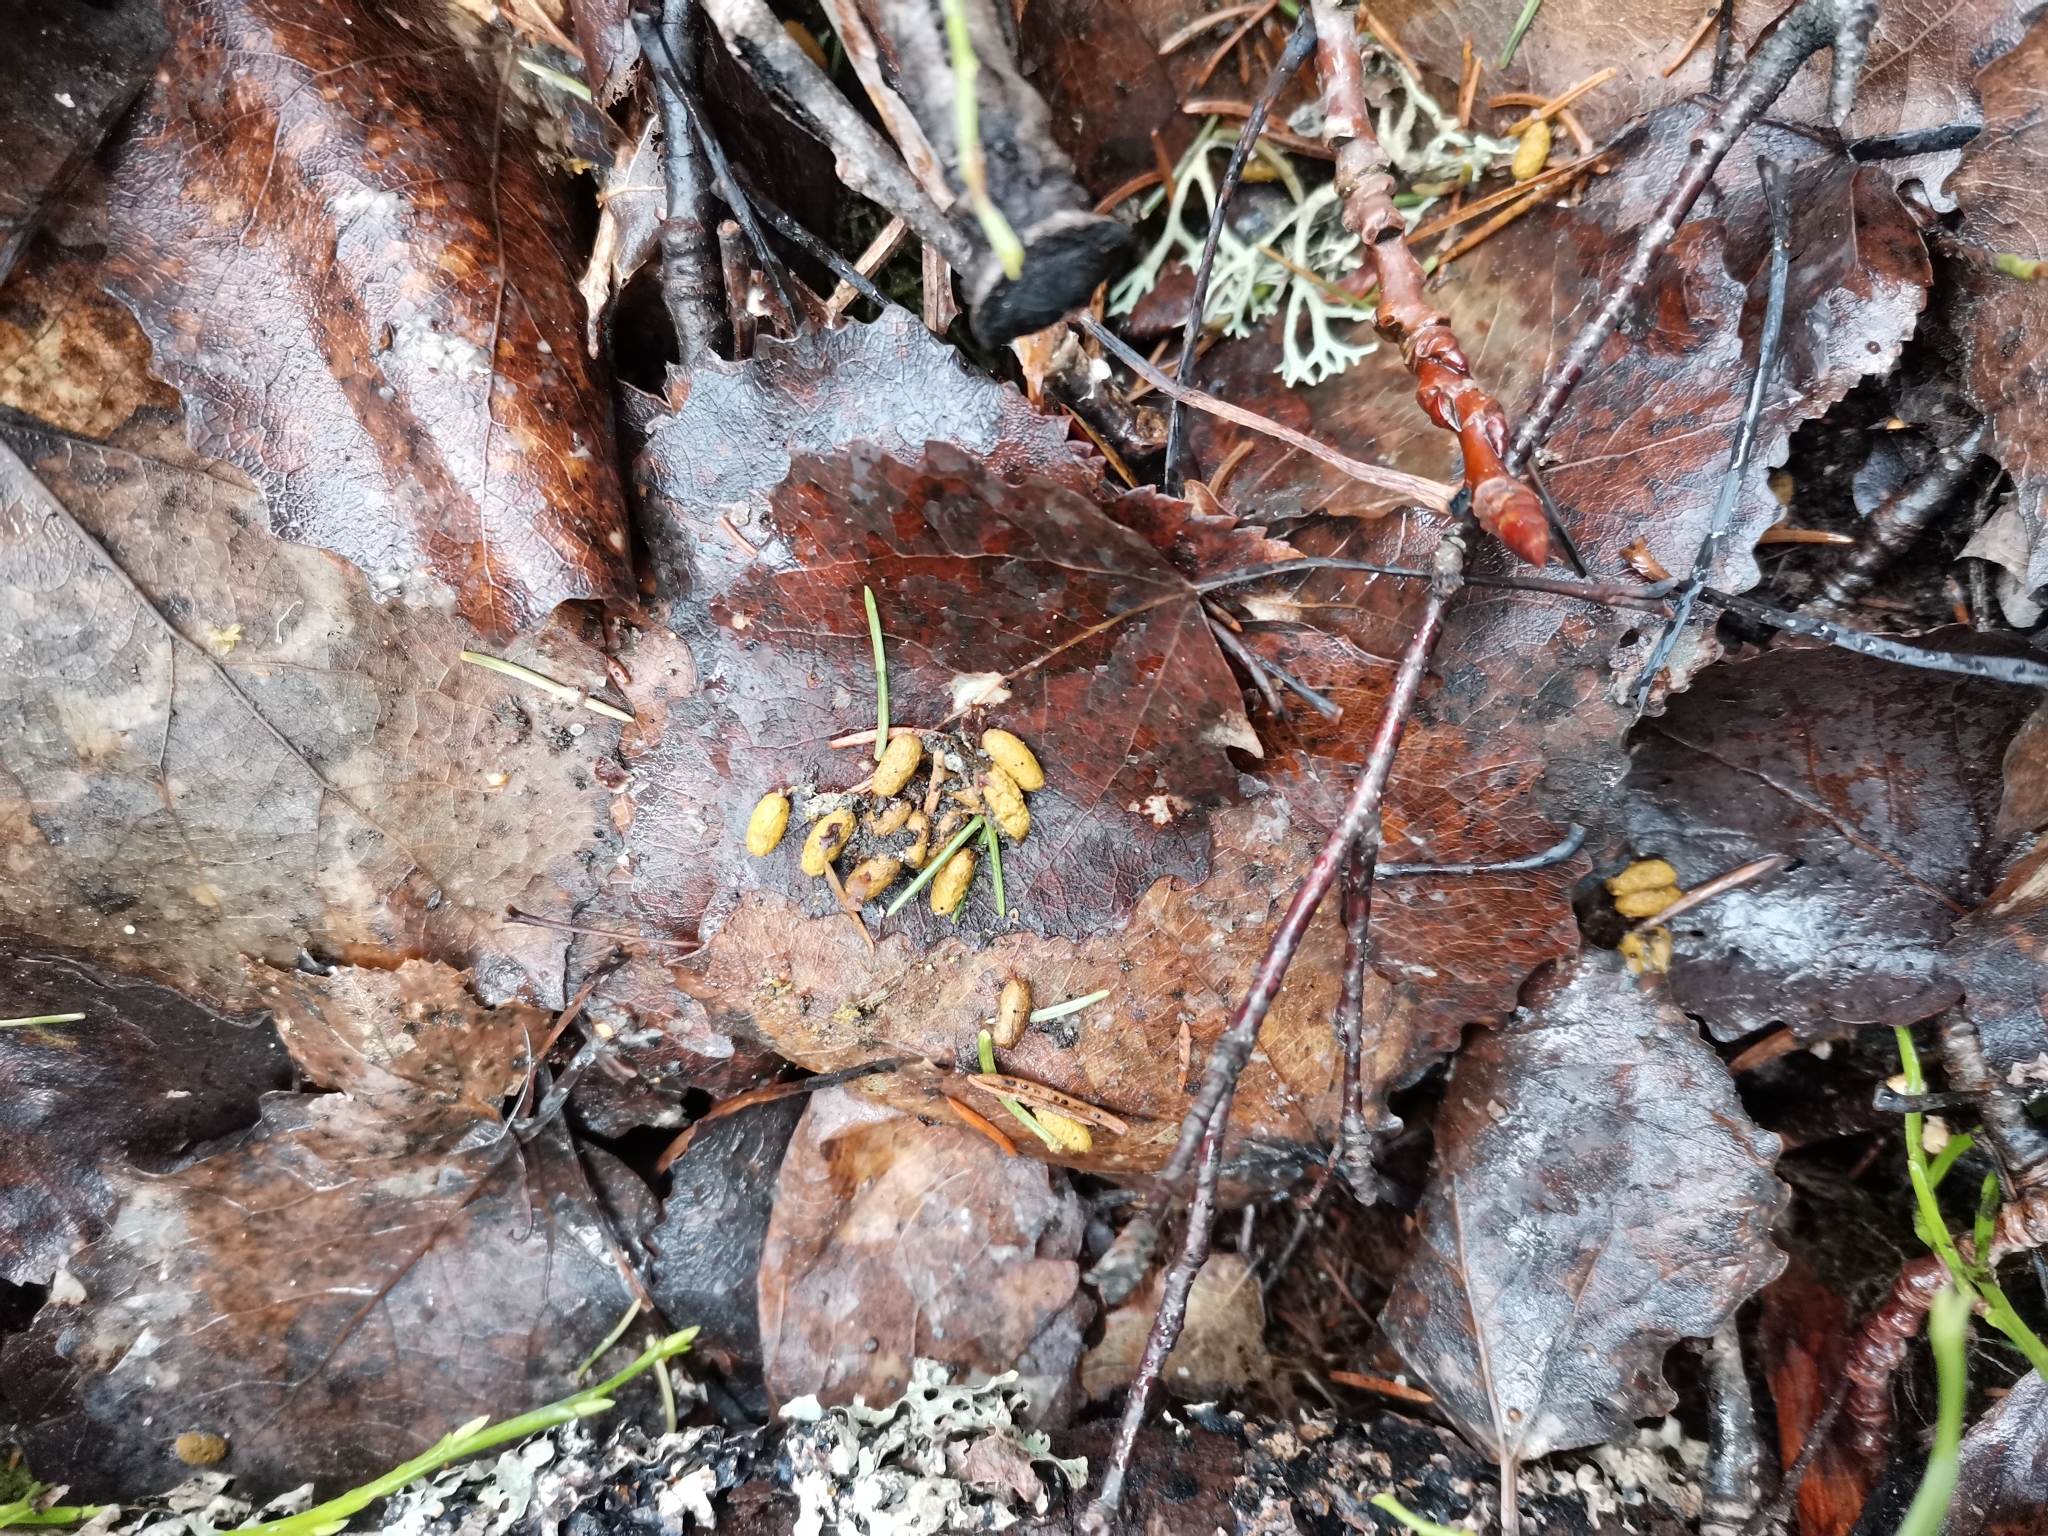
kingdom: Animalia
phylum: Chordata
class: Mammalia
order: Rodentia
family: Sciuridae
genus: Pteromys
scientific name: Pteromys volans
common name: Siberian flying squirrel
